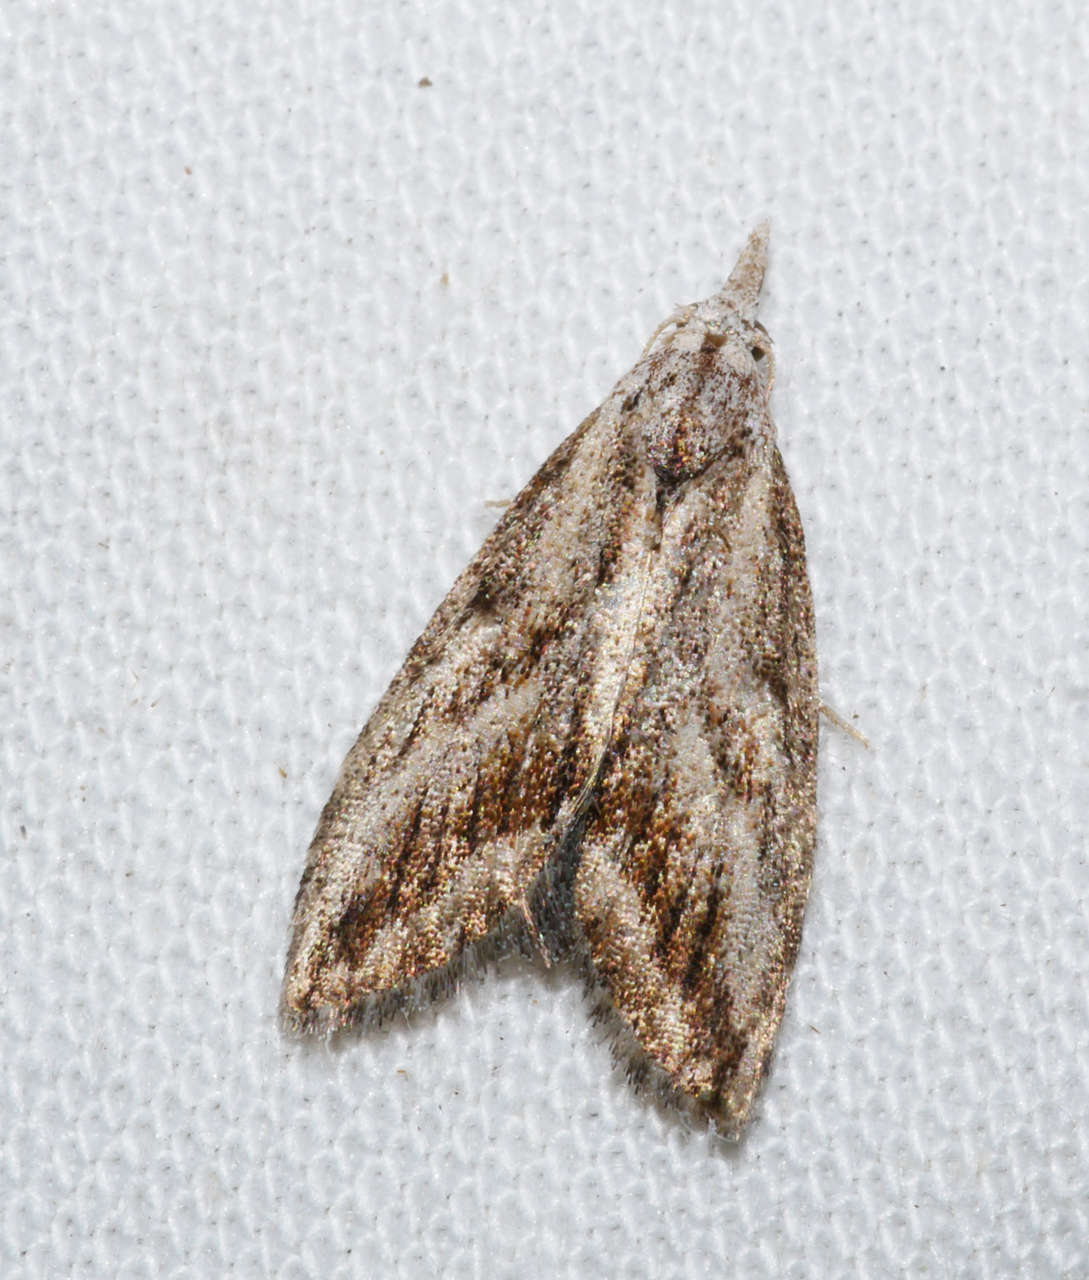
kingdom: Animalia
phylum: Arthropoda
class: Insecta
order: Lepidoptera
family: Nolidae
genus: Nola
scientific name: Nola phaeogramma
